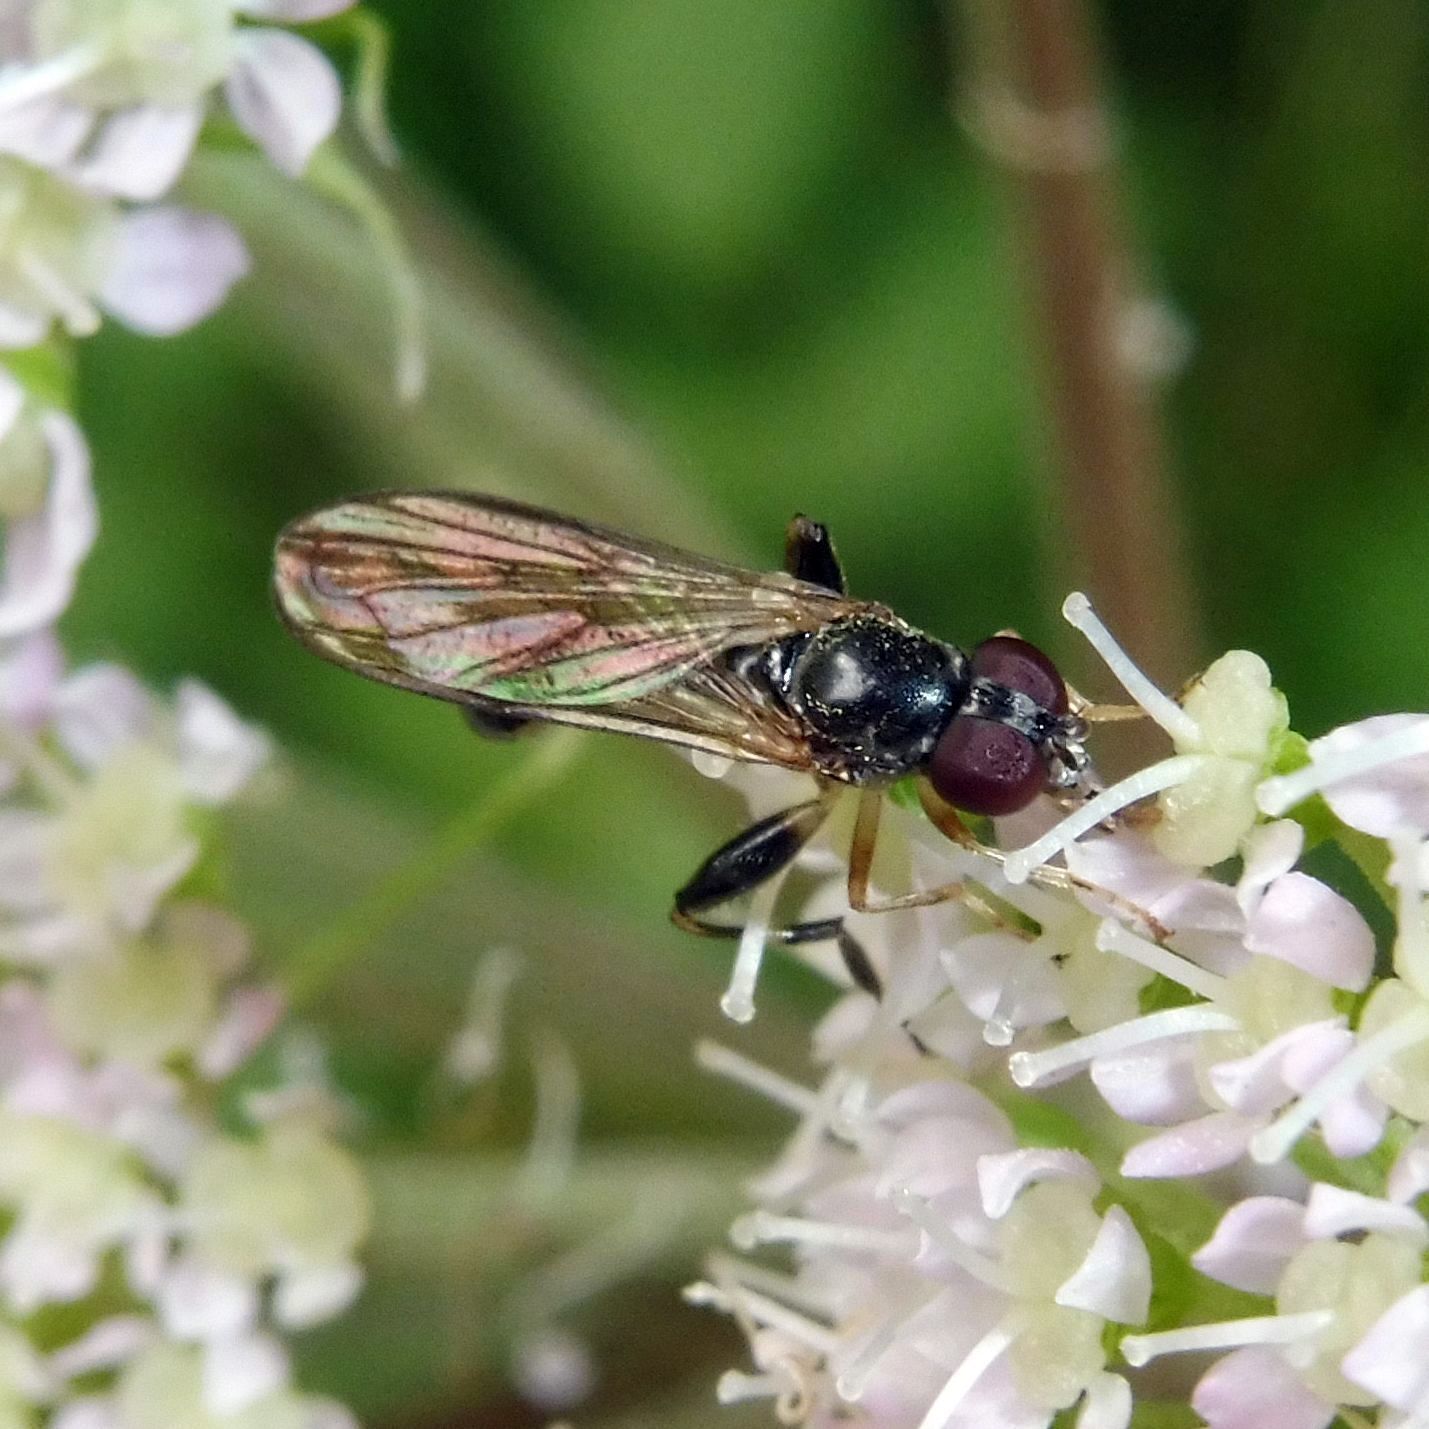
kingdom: Animalia
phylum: Arthropoda
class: Insecta
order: Diptera
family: Syrphidae
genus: Sphegina
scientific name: Sphegina
